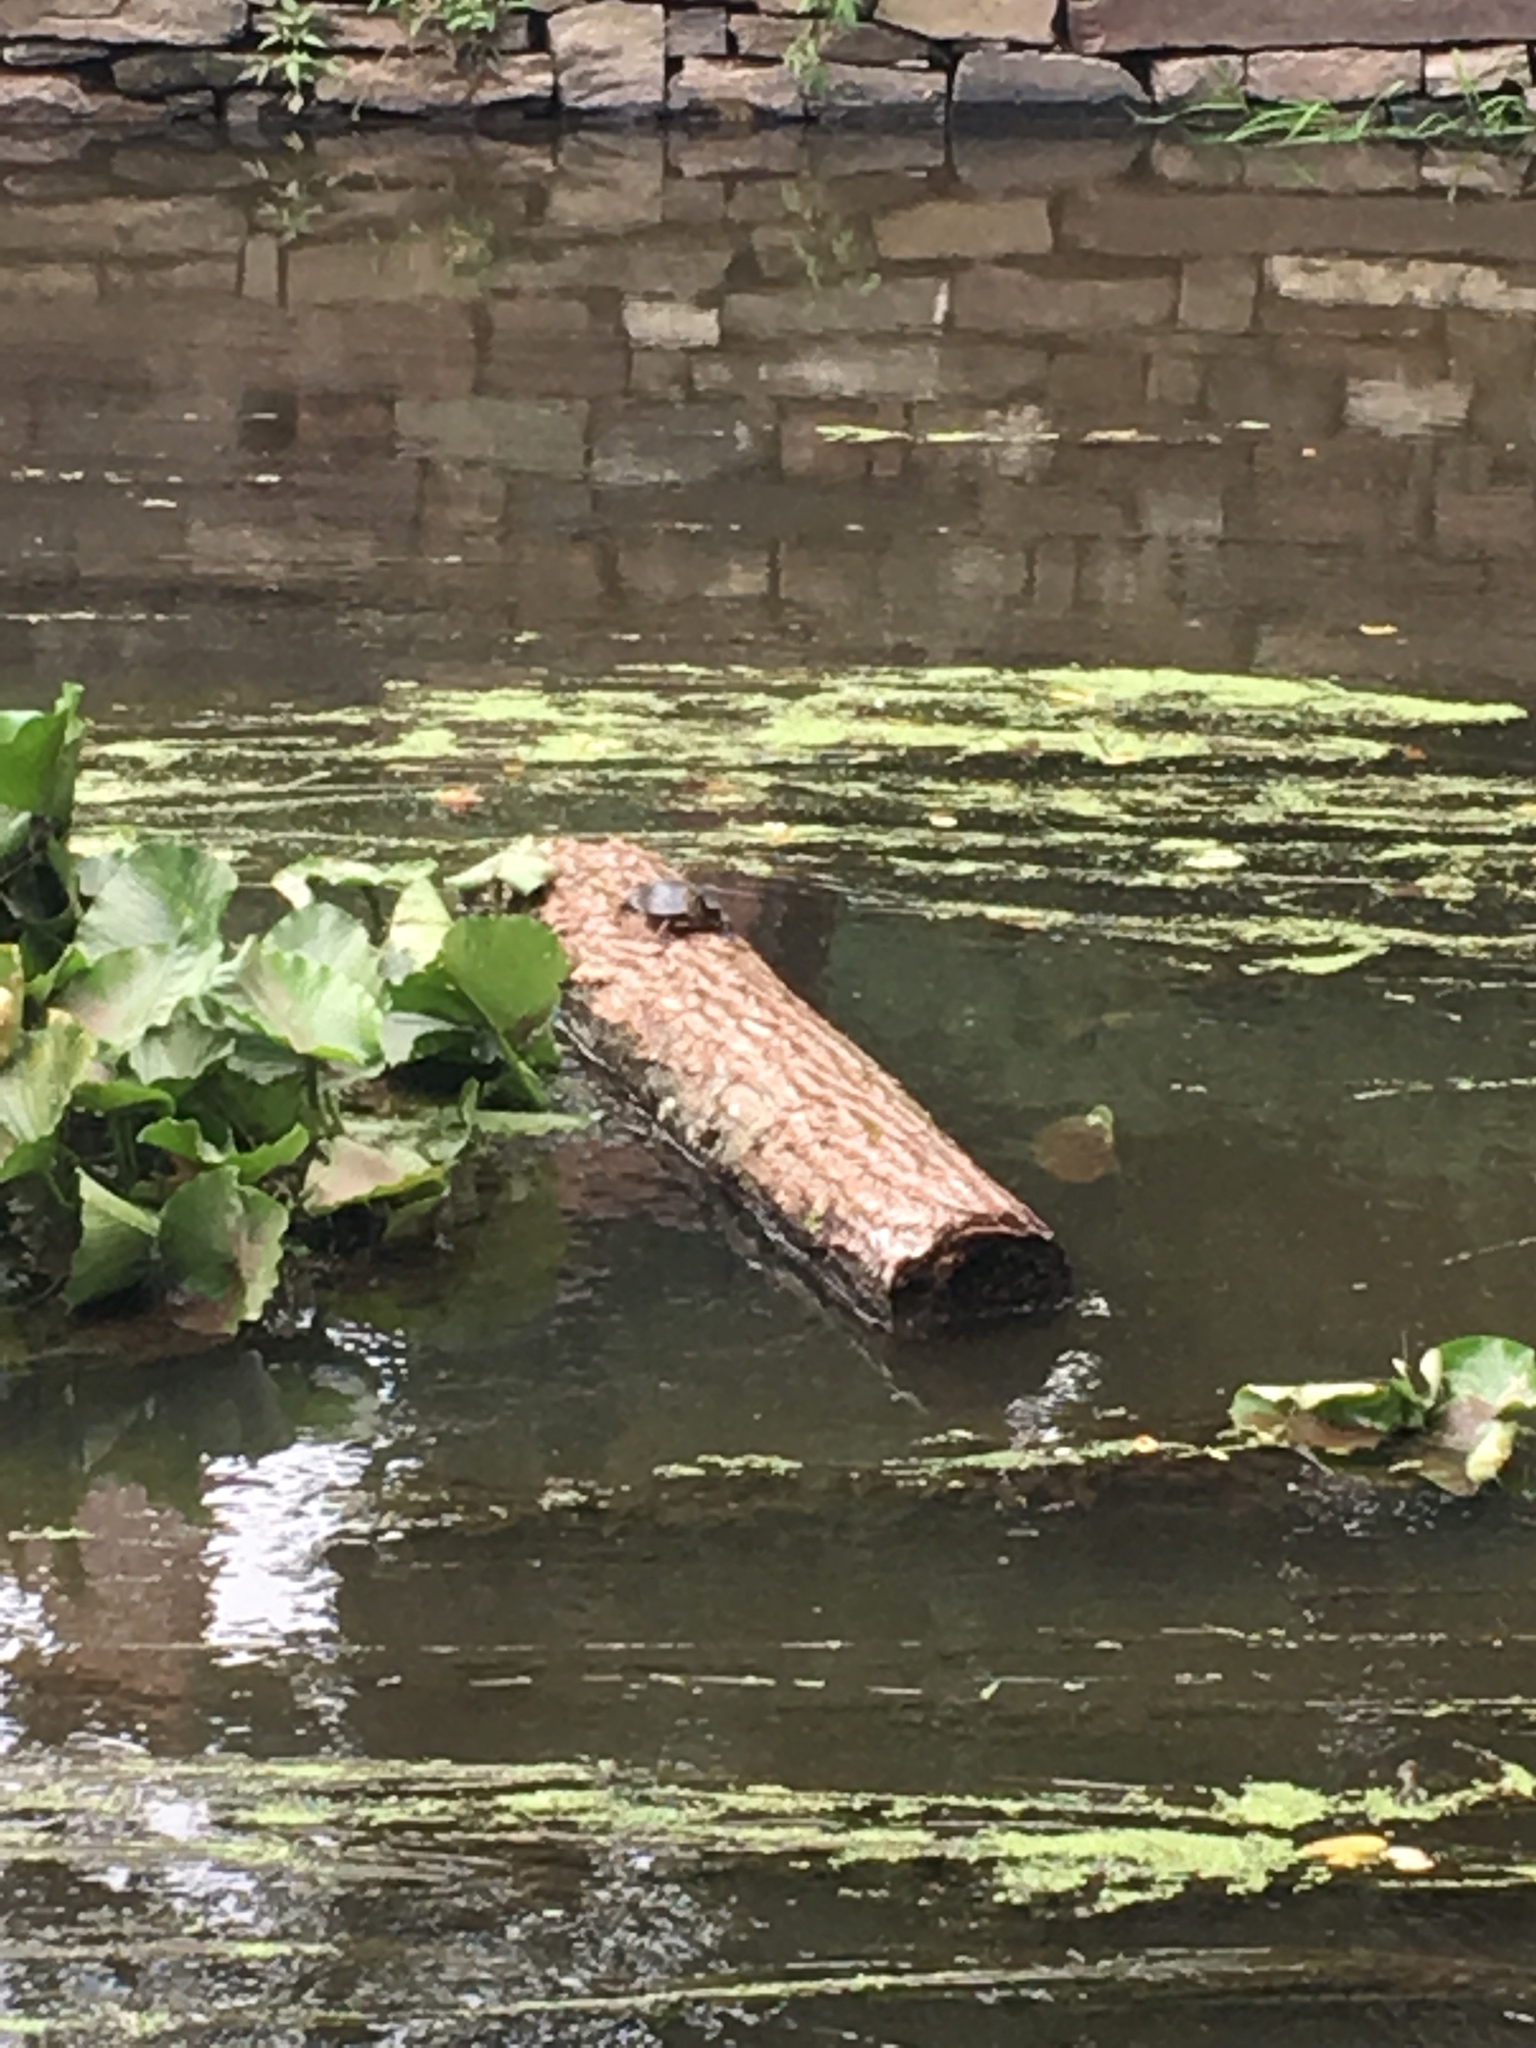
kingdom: Animalia
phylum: Chordata
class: Testudines
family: Emydidae
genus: Chrysemys
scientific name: Chrysemys picta
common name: Painted turtle
